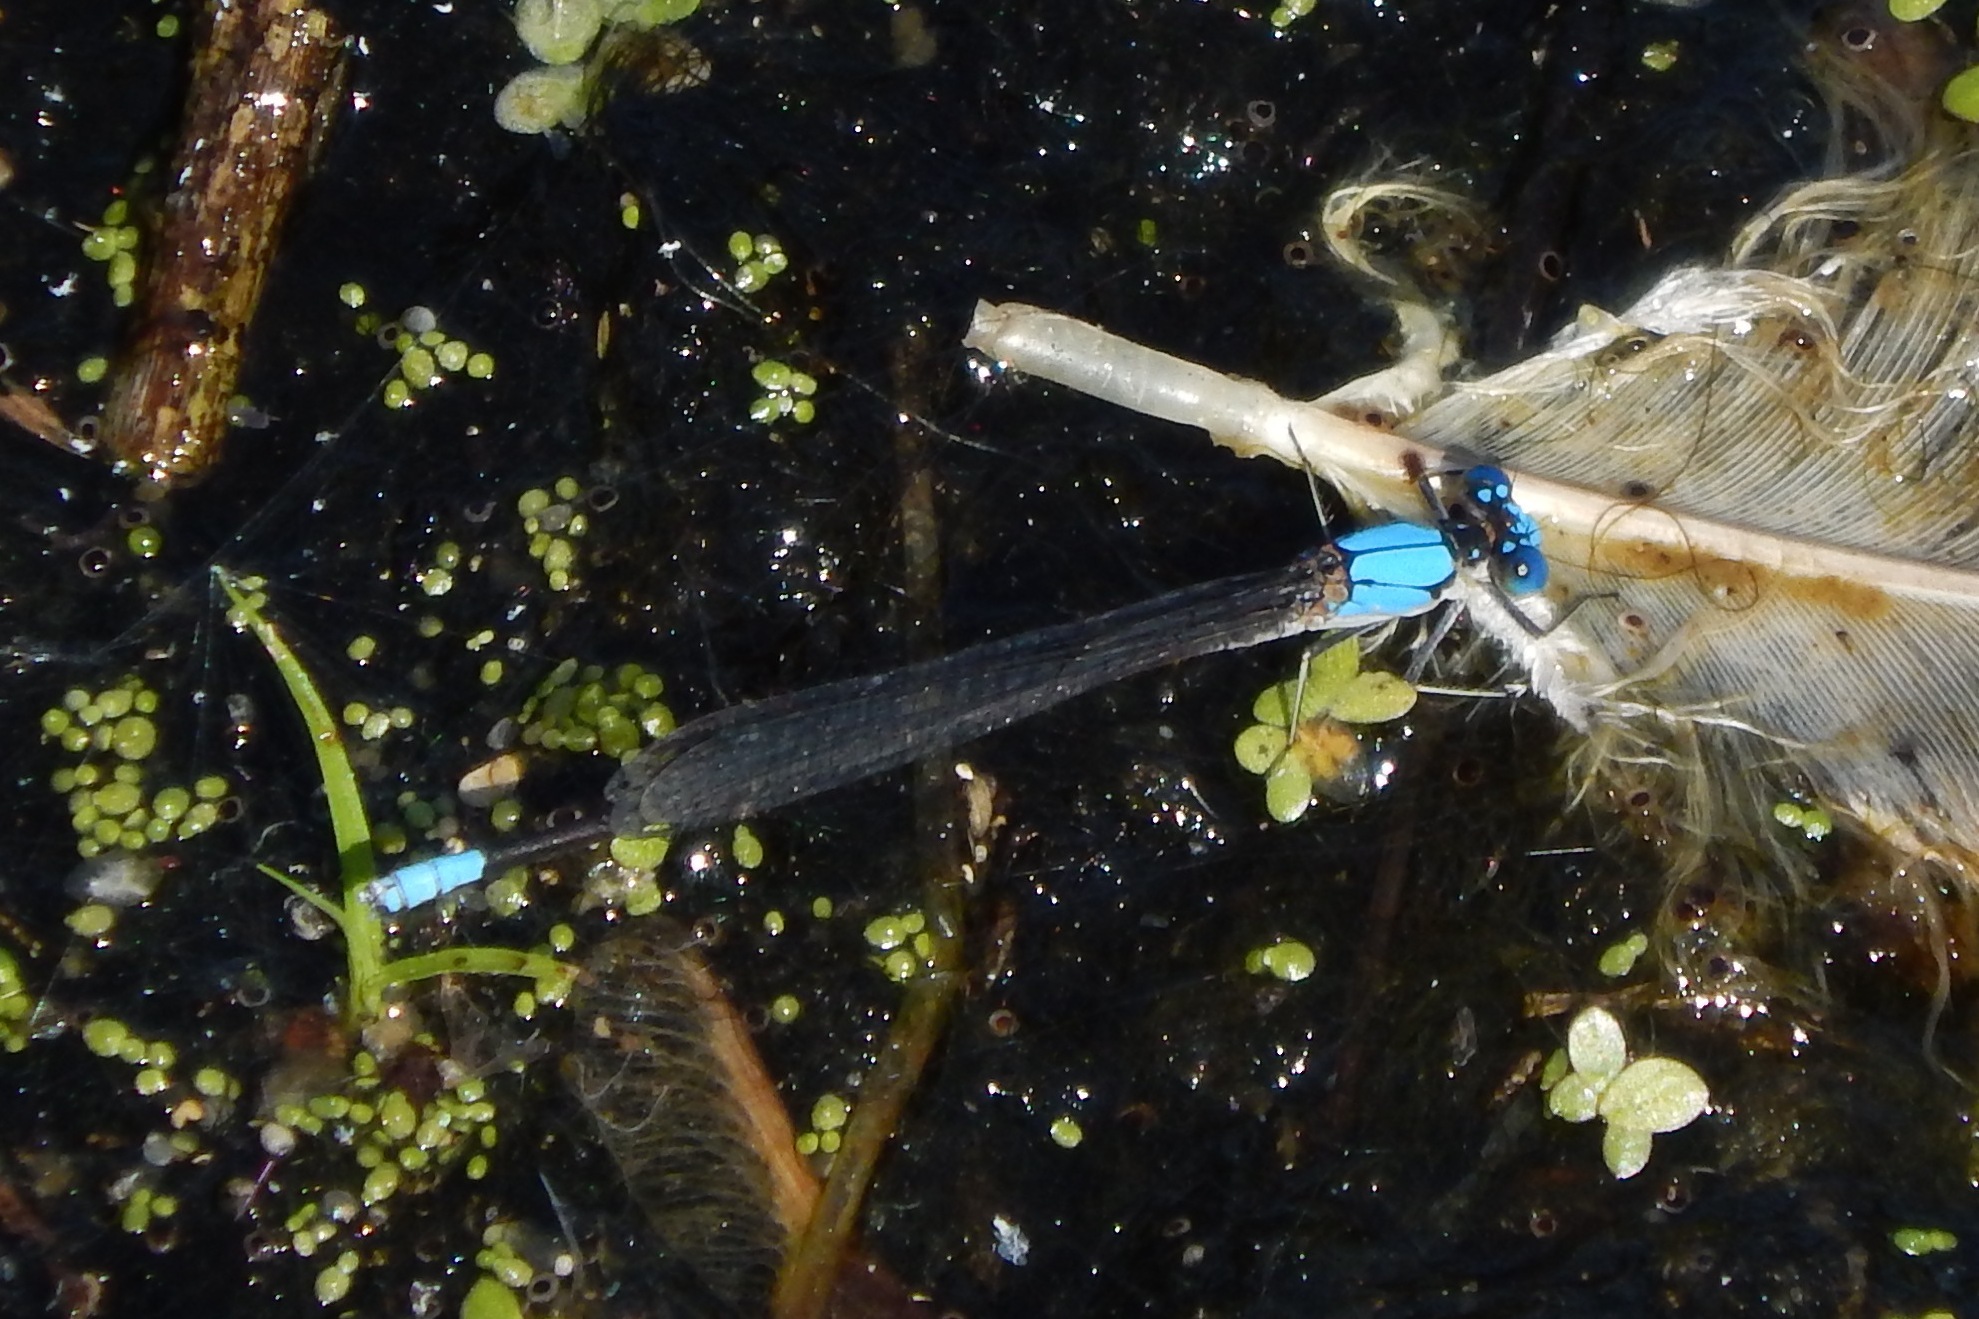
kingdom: Animalia
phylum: Arthropoda
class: Insecta
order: Odonata
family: Coenagrionidae
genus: Argia
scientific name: Argia apicalis
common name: Blue-fronted dancer
